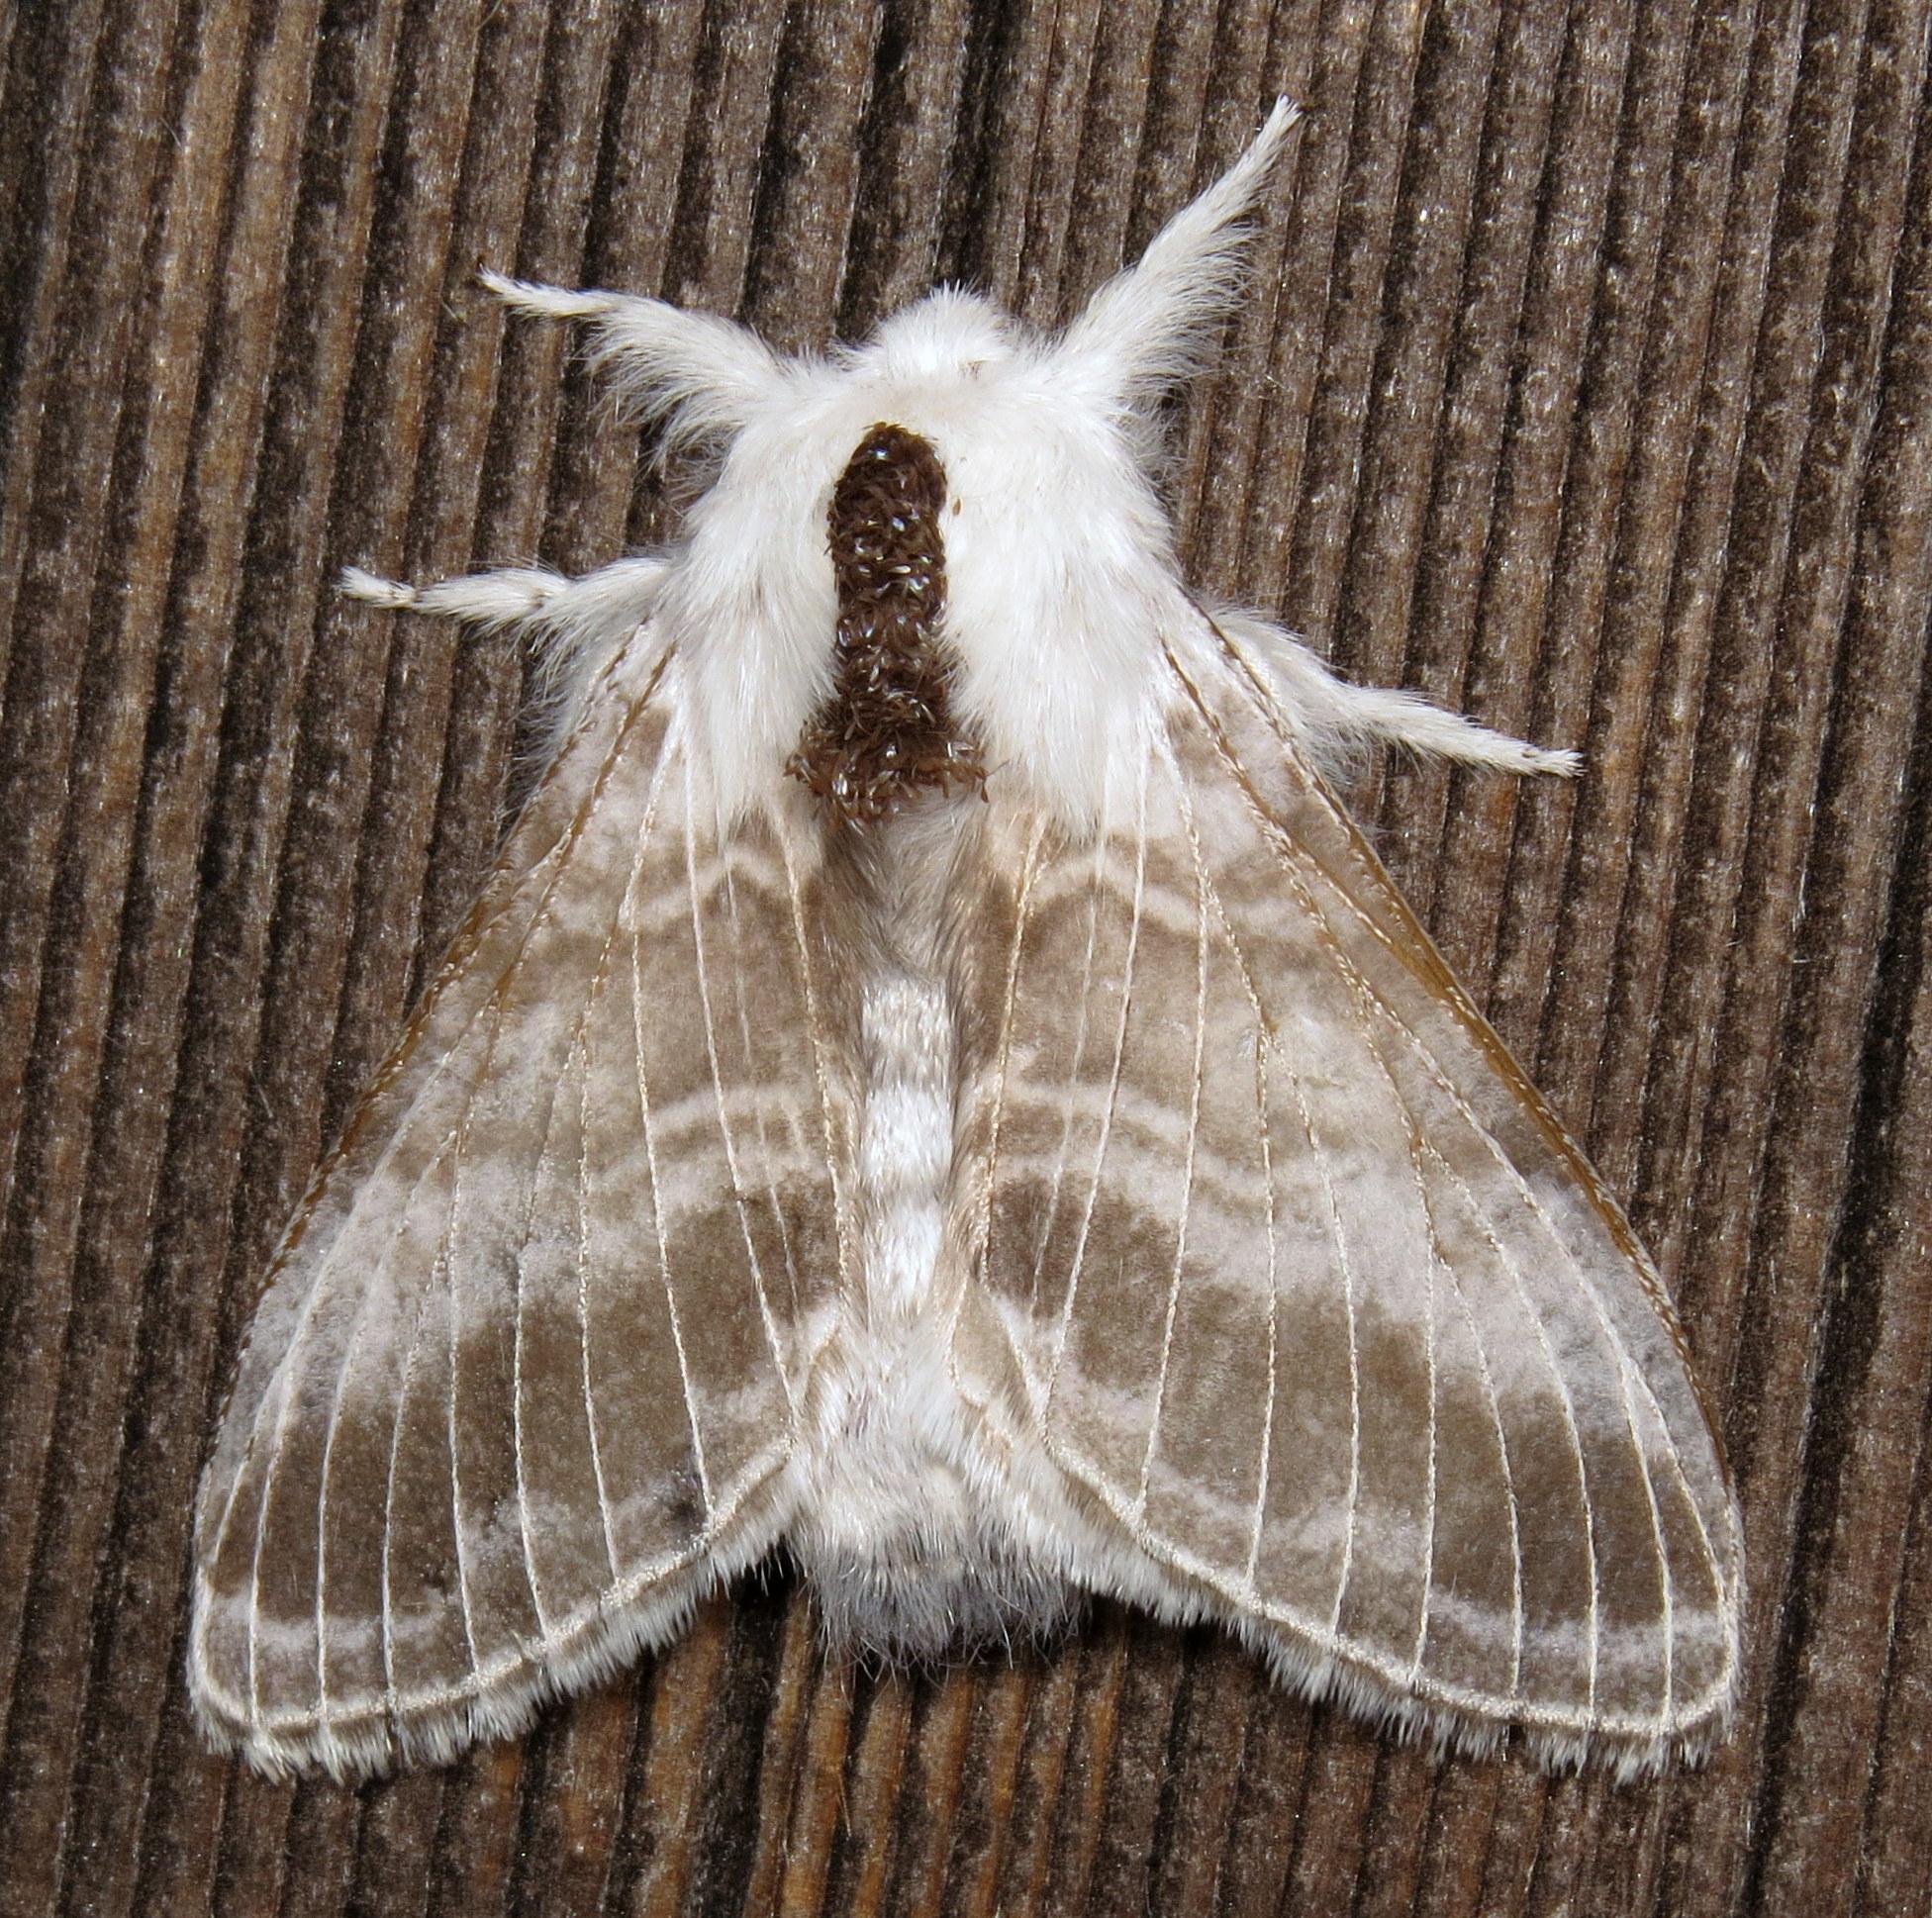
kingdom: Animalia
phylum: Arthropoda
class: Insecta
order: Lepidoptera
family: Lasiocampidae
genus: Tolype
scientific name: Tolype velleda
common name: Large tolype moth
